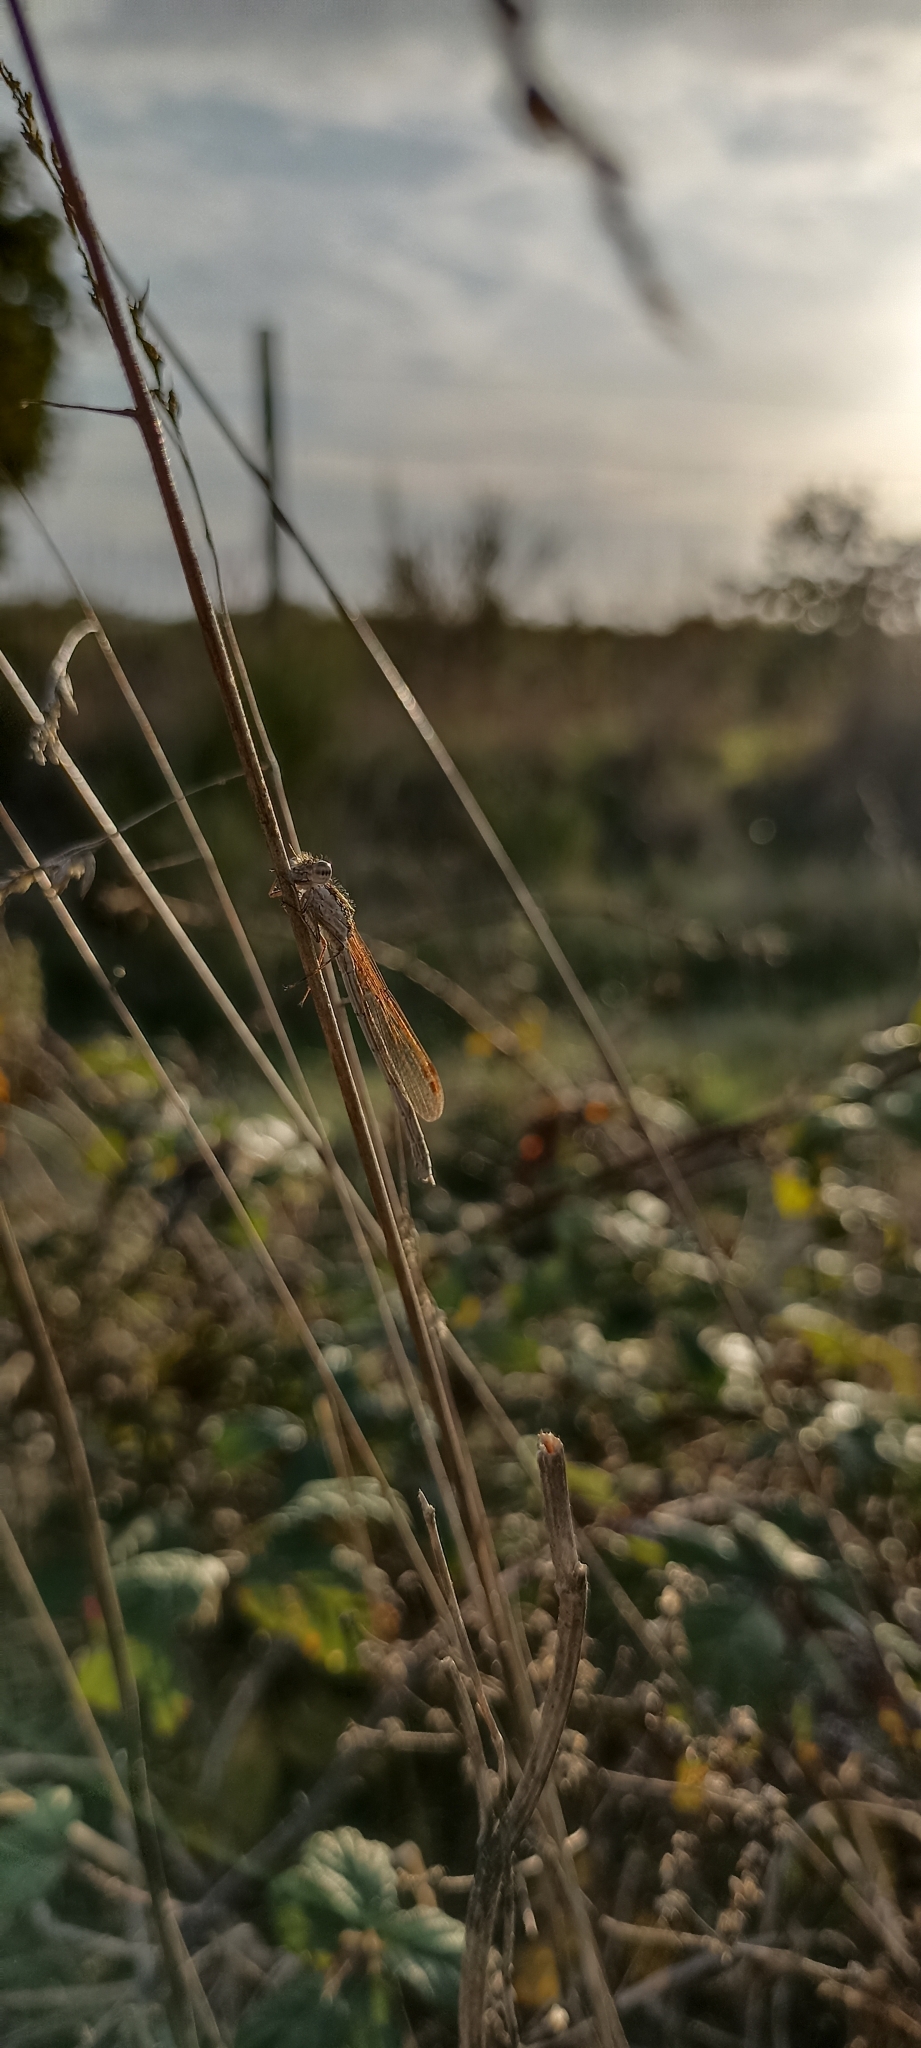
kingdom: Animalia
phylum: Arthropoda
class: Insecta
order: Odonata
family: Lestidae
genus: Sympecma
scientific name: Sympecma fusca
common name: Common winter damsel
